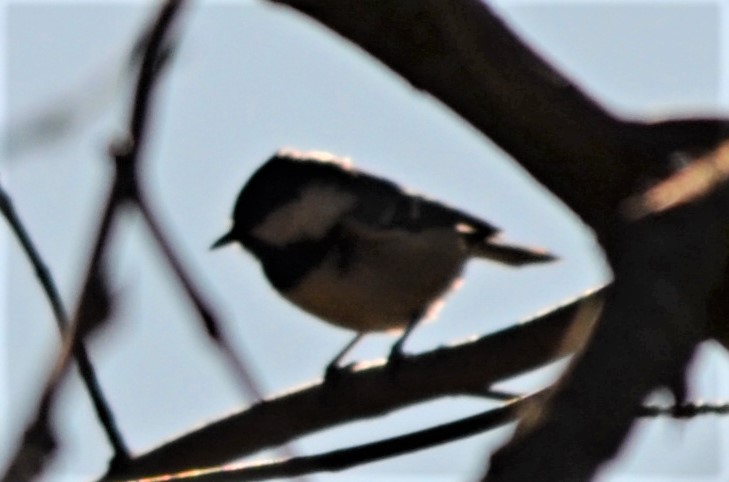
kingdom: Animalia
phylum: Chordata
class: Aves
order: Passeriformes
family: Paridae
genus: Periparus
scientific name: Periparus ater
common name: Coal tit
